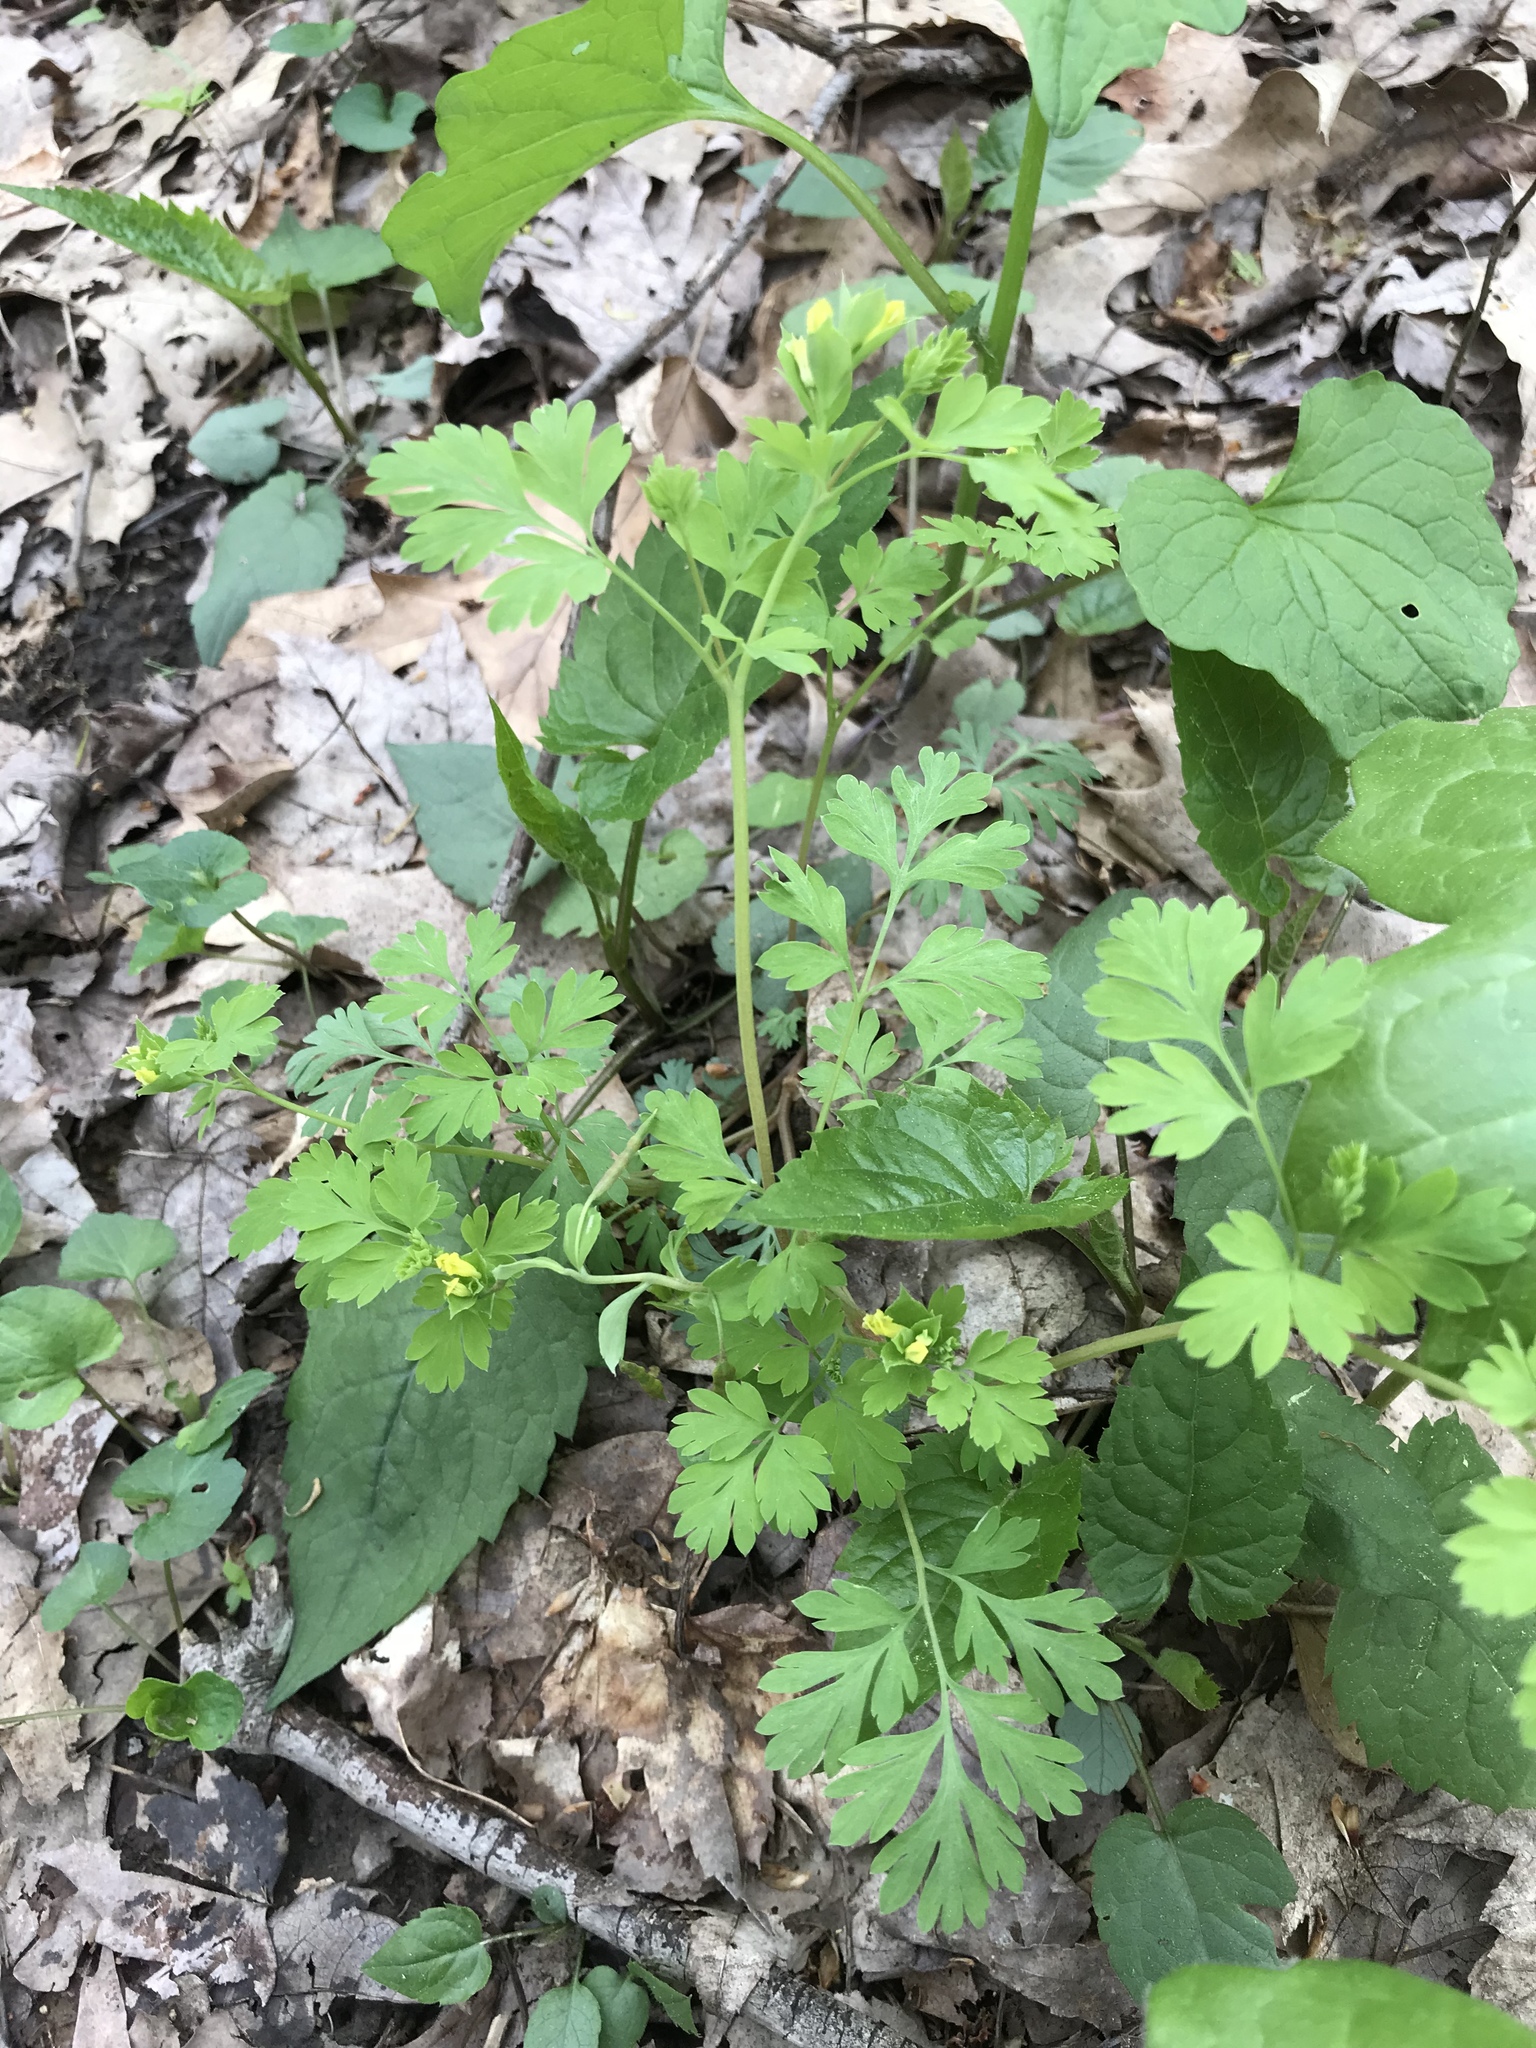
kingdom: Plantae
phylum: Tracheophyta
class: Magnoliopsida
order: Ranunculales
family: Papaveraceae
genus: Corydalis
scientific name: Corydalis flavula
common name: Yellow corydalis
